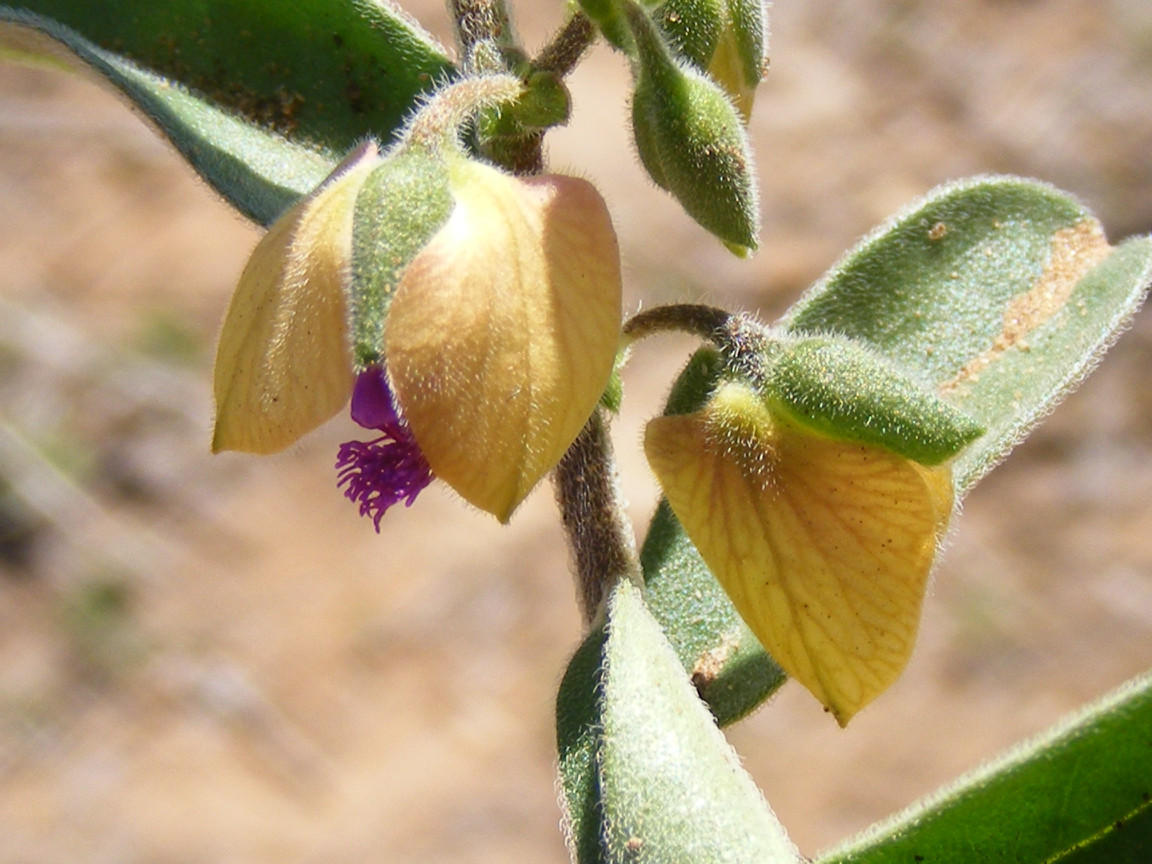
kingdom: Plantae
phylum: Tracheophyta
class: Magnoliopsida
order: Fabales
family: Polygalaceae
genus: Polygala
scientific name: Polygala senensis
